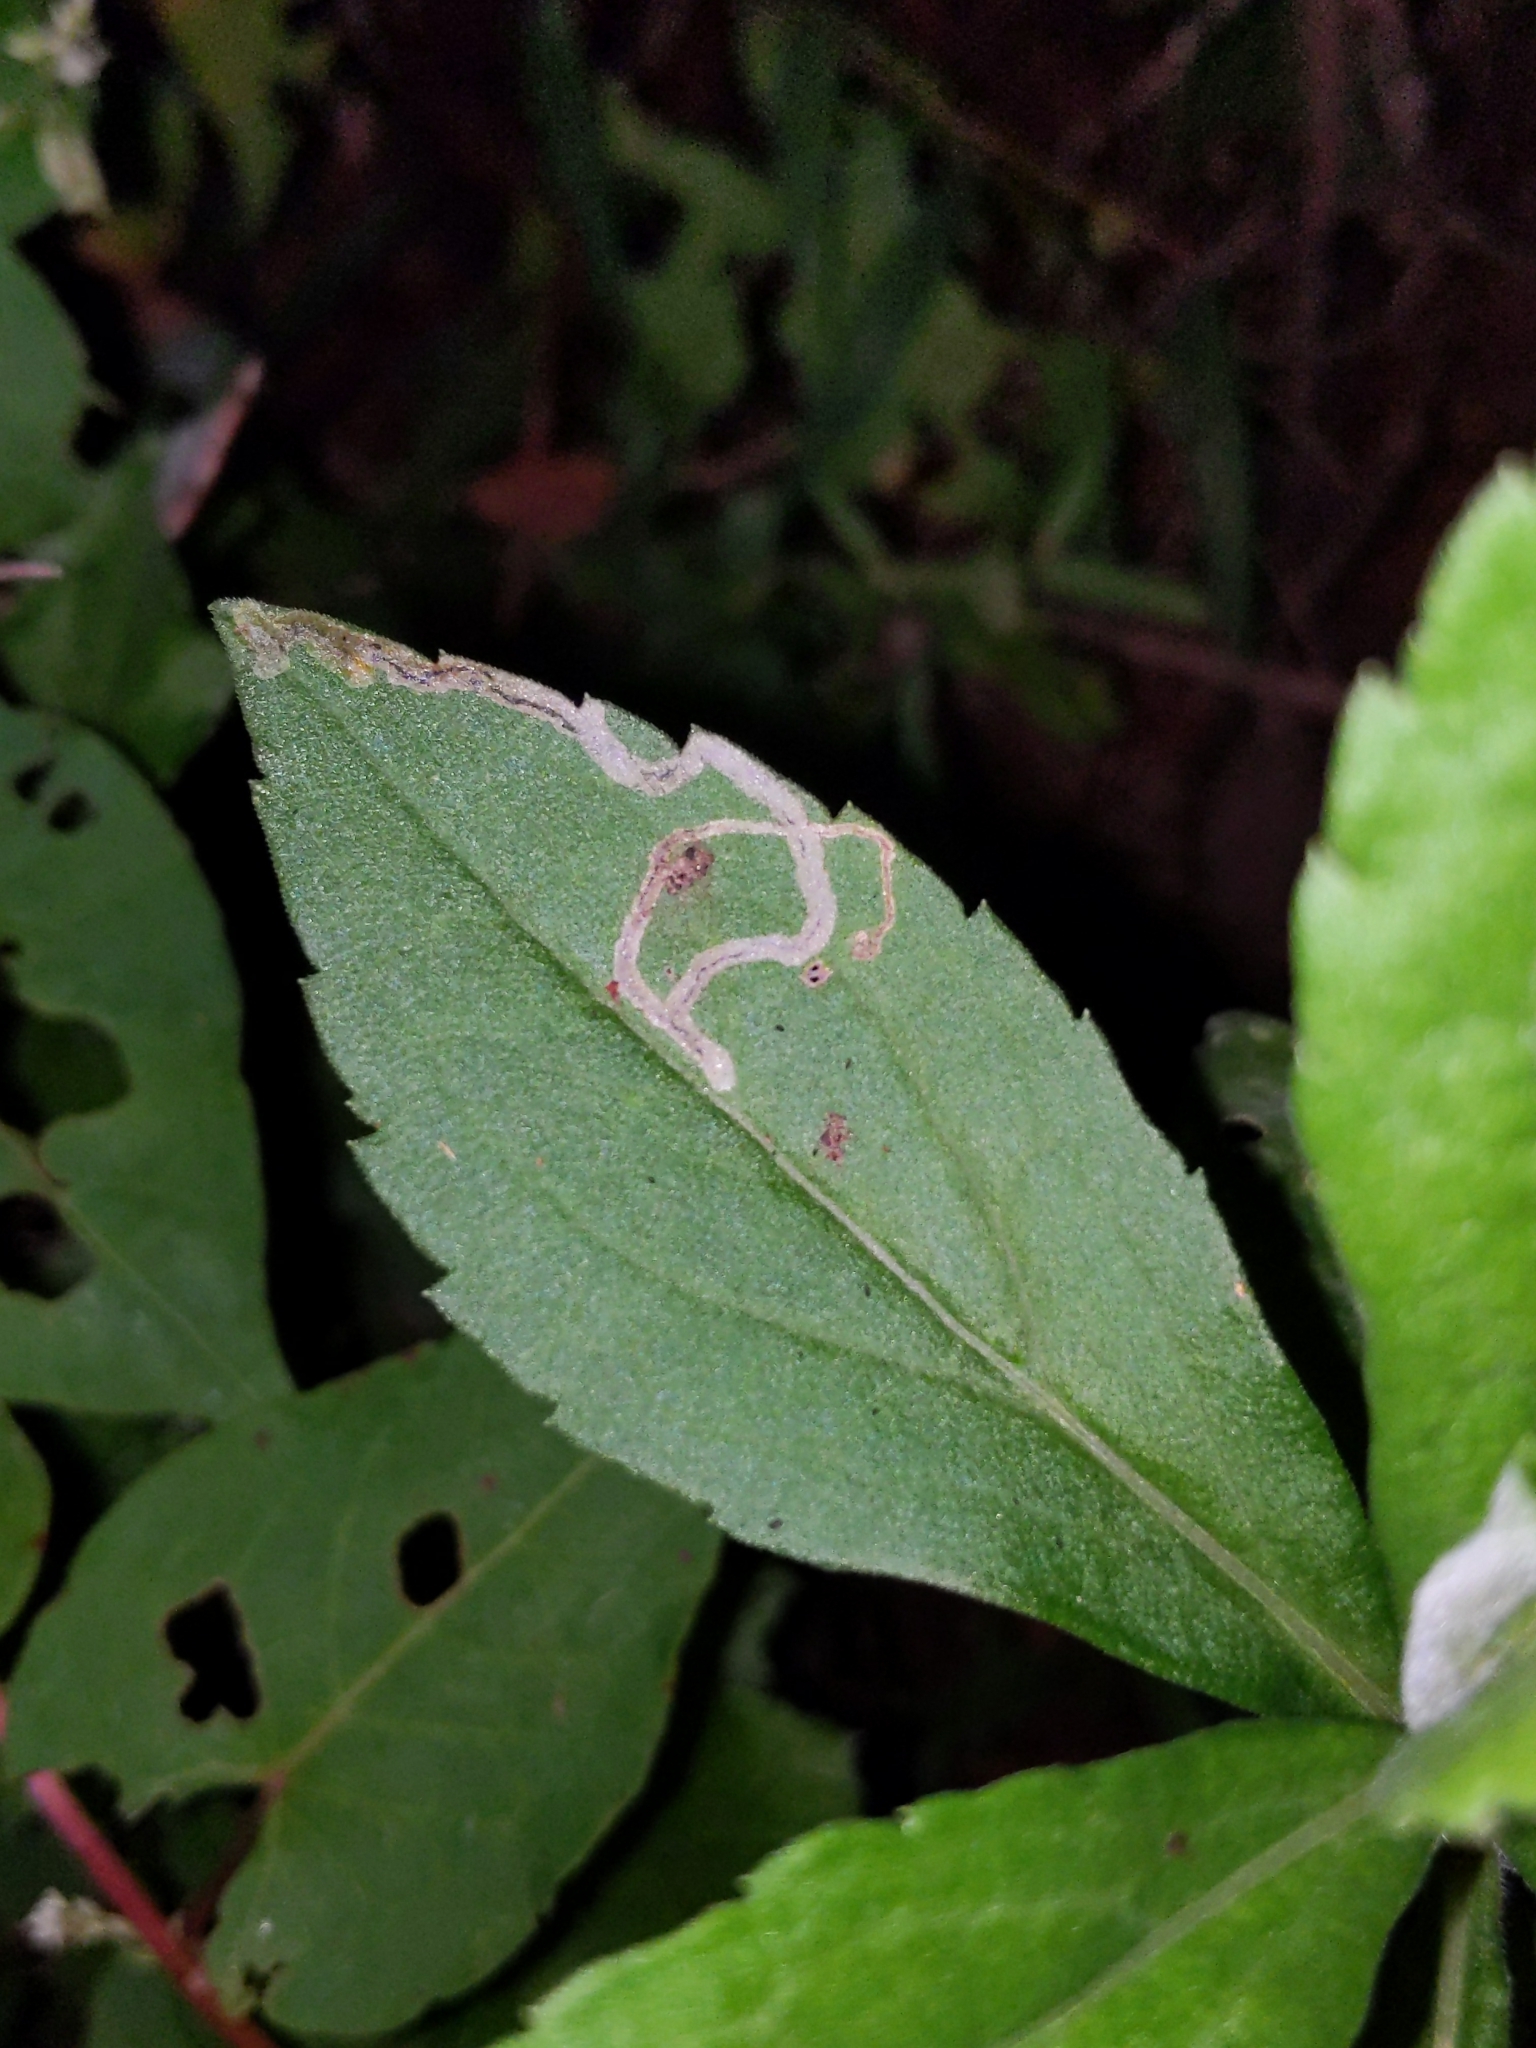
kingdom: Animalia
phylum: Arthropoda
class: Insecta
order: Diptera
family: Agromyzidae
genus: Liriomyza
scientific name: Liriomyza eupatorii
